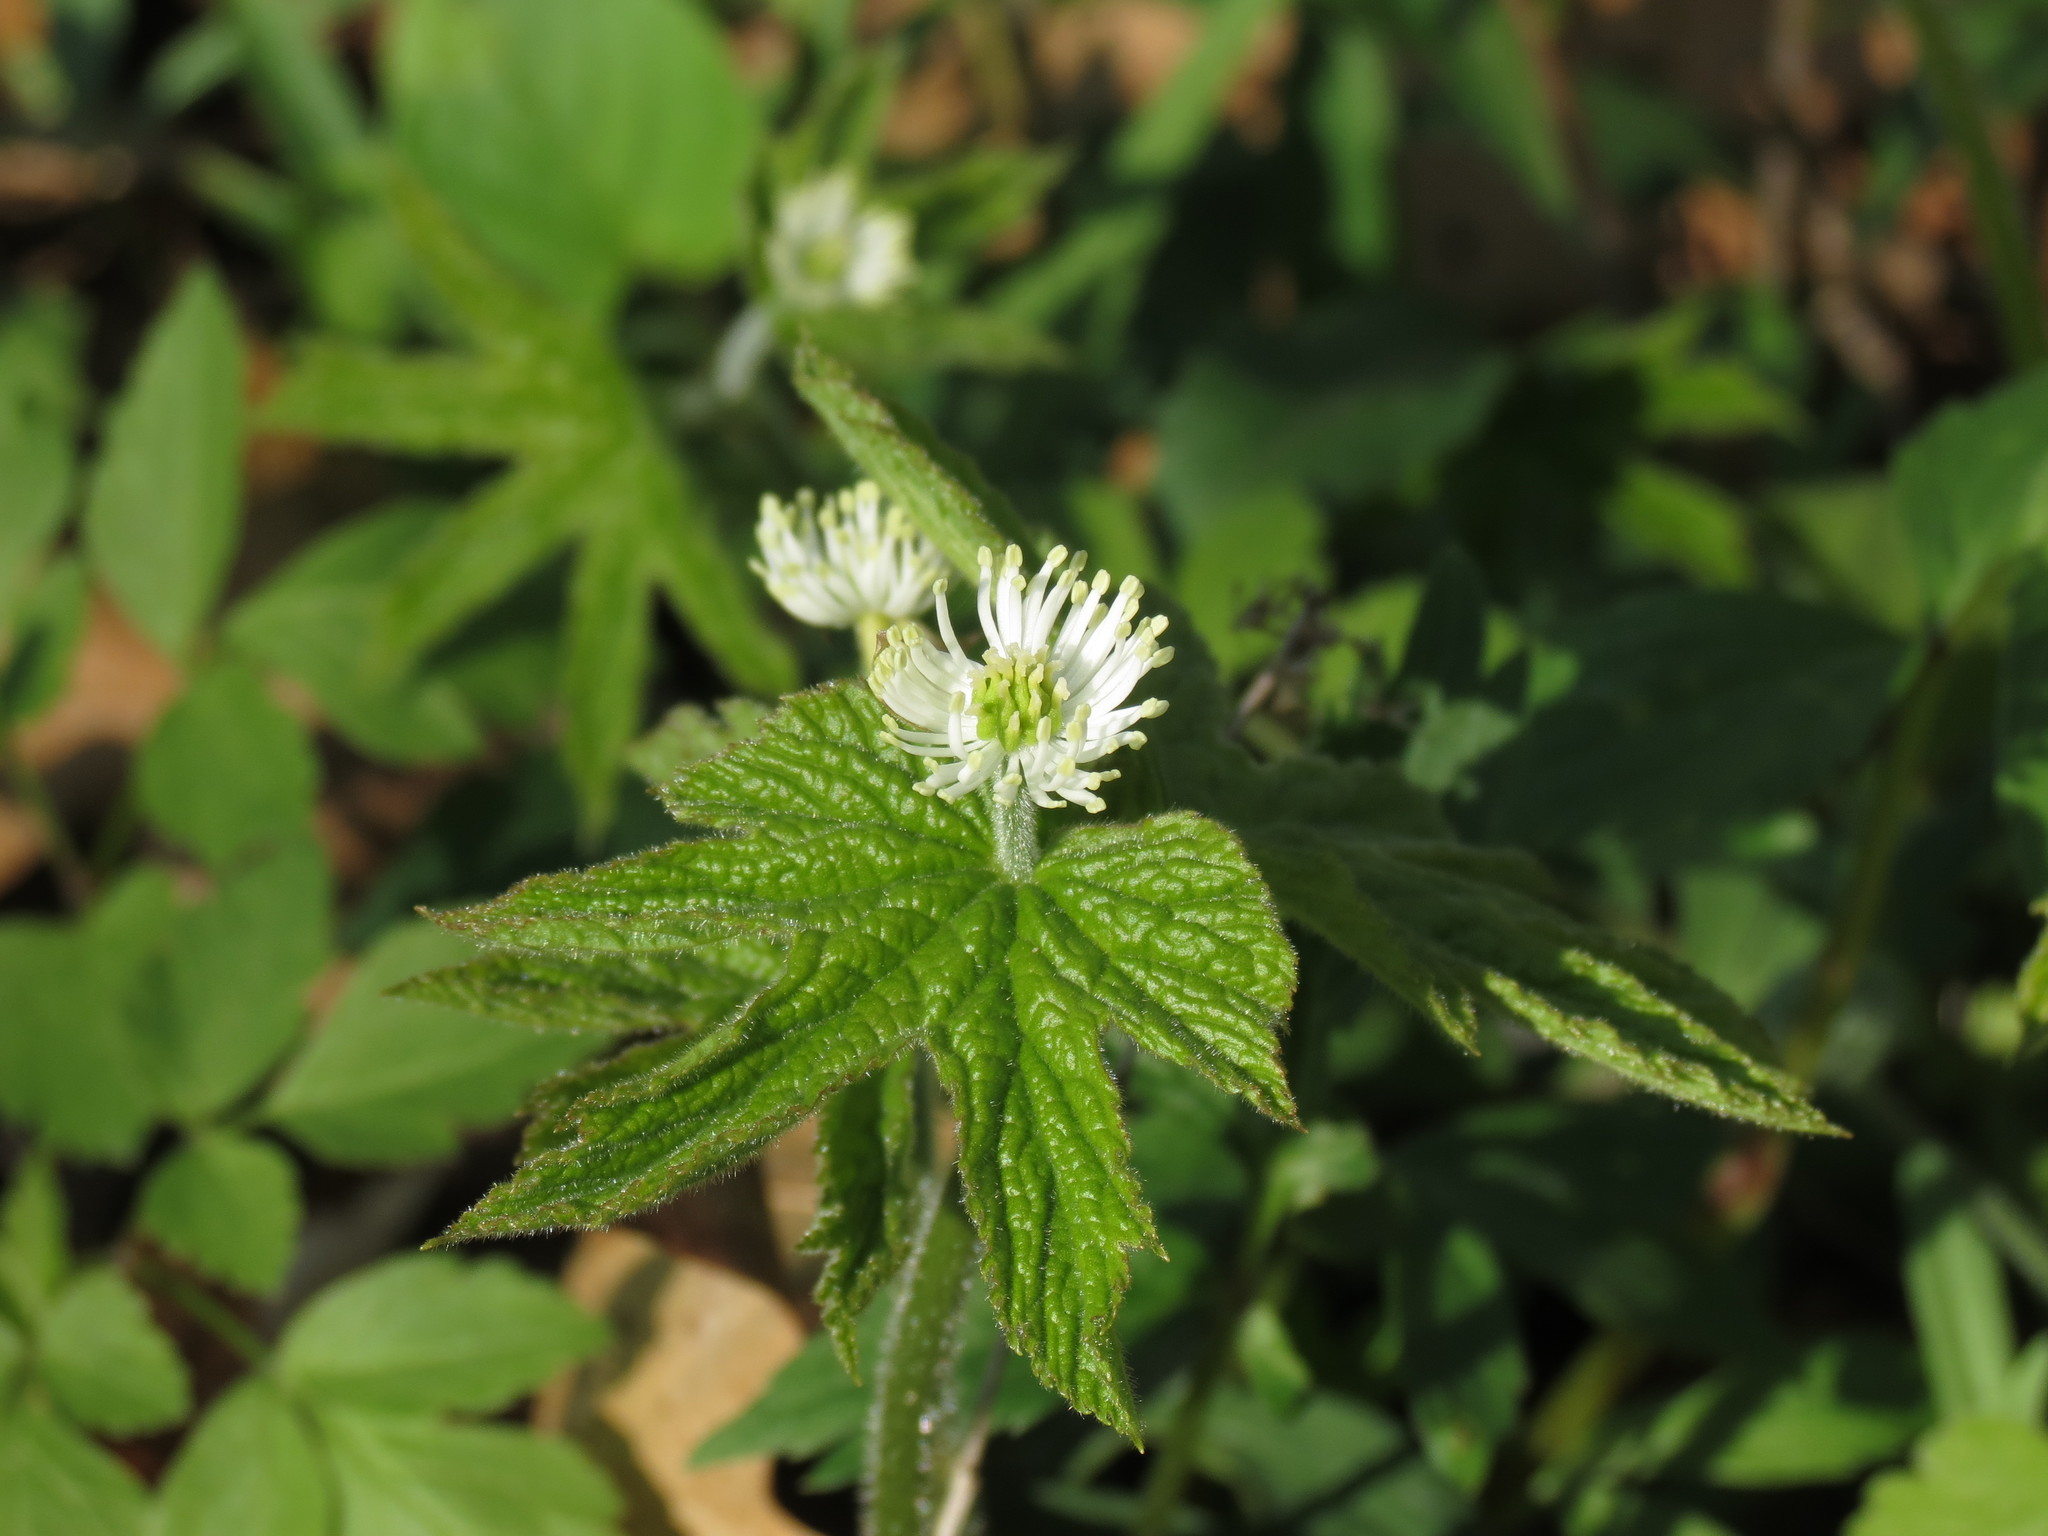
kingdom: Plantae
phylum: Tracheophyta
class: Magnoliopsida
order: Ranunculales
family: Ranunculaceae
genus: Hydrastis
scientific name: Hydrastis canadensis
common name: Goldenseal
